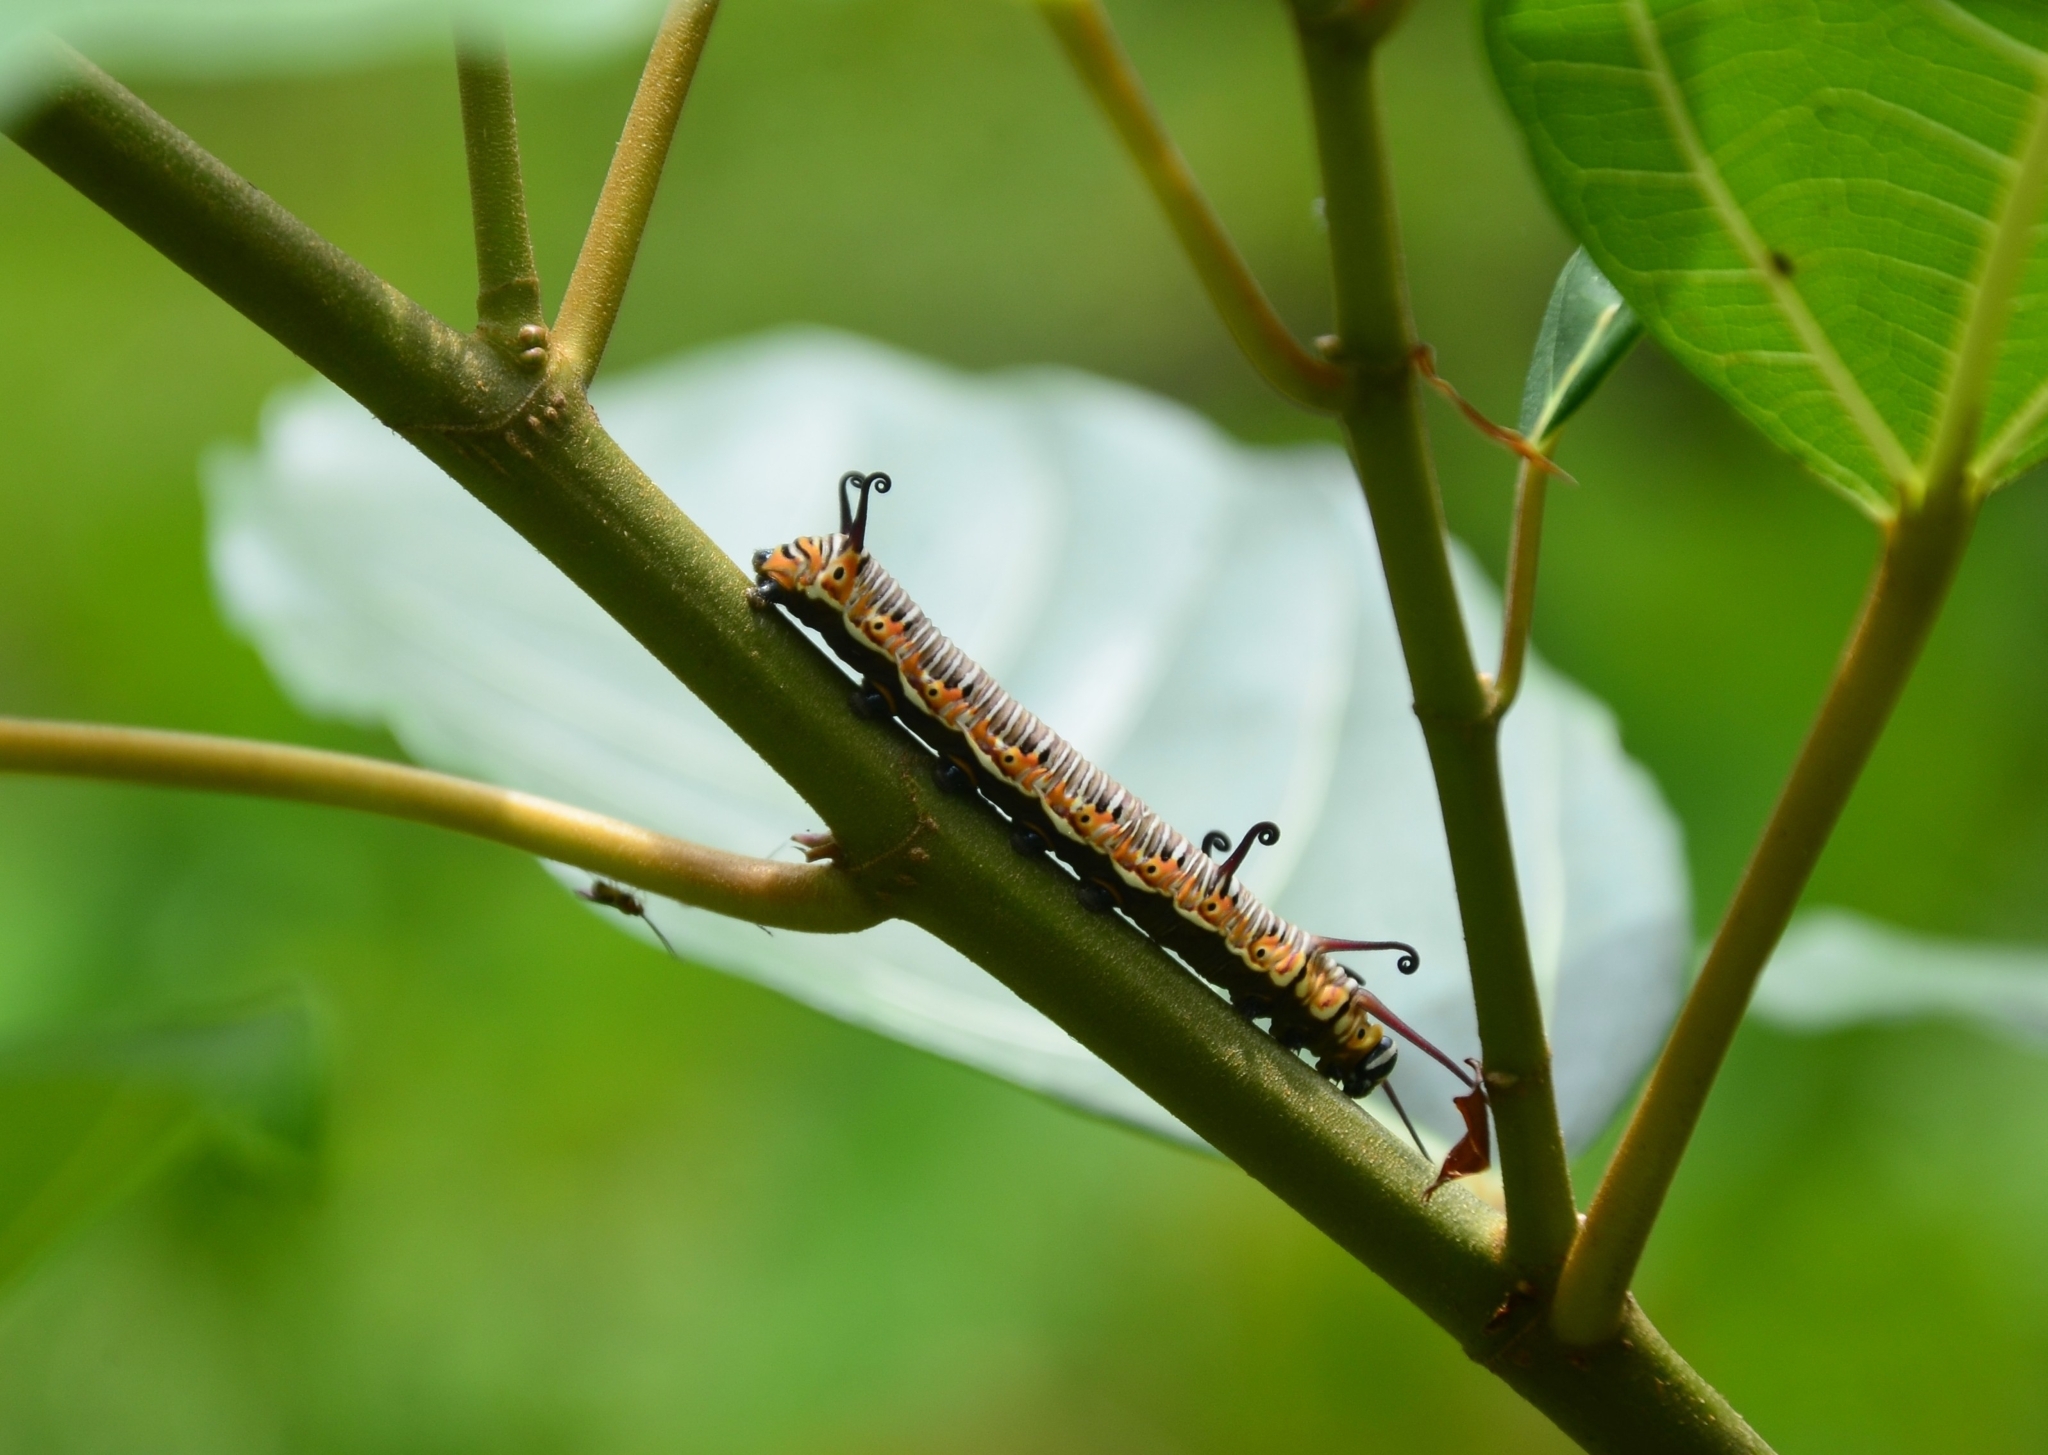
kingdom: Animalia
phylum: Arthropoda
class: Insecta
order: Lepidoptera
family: Nymphalidae
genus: Euploea
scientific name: Euploea core
